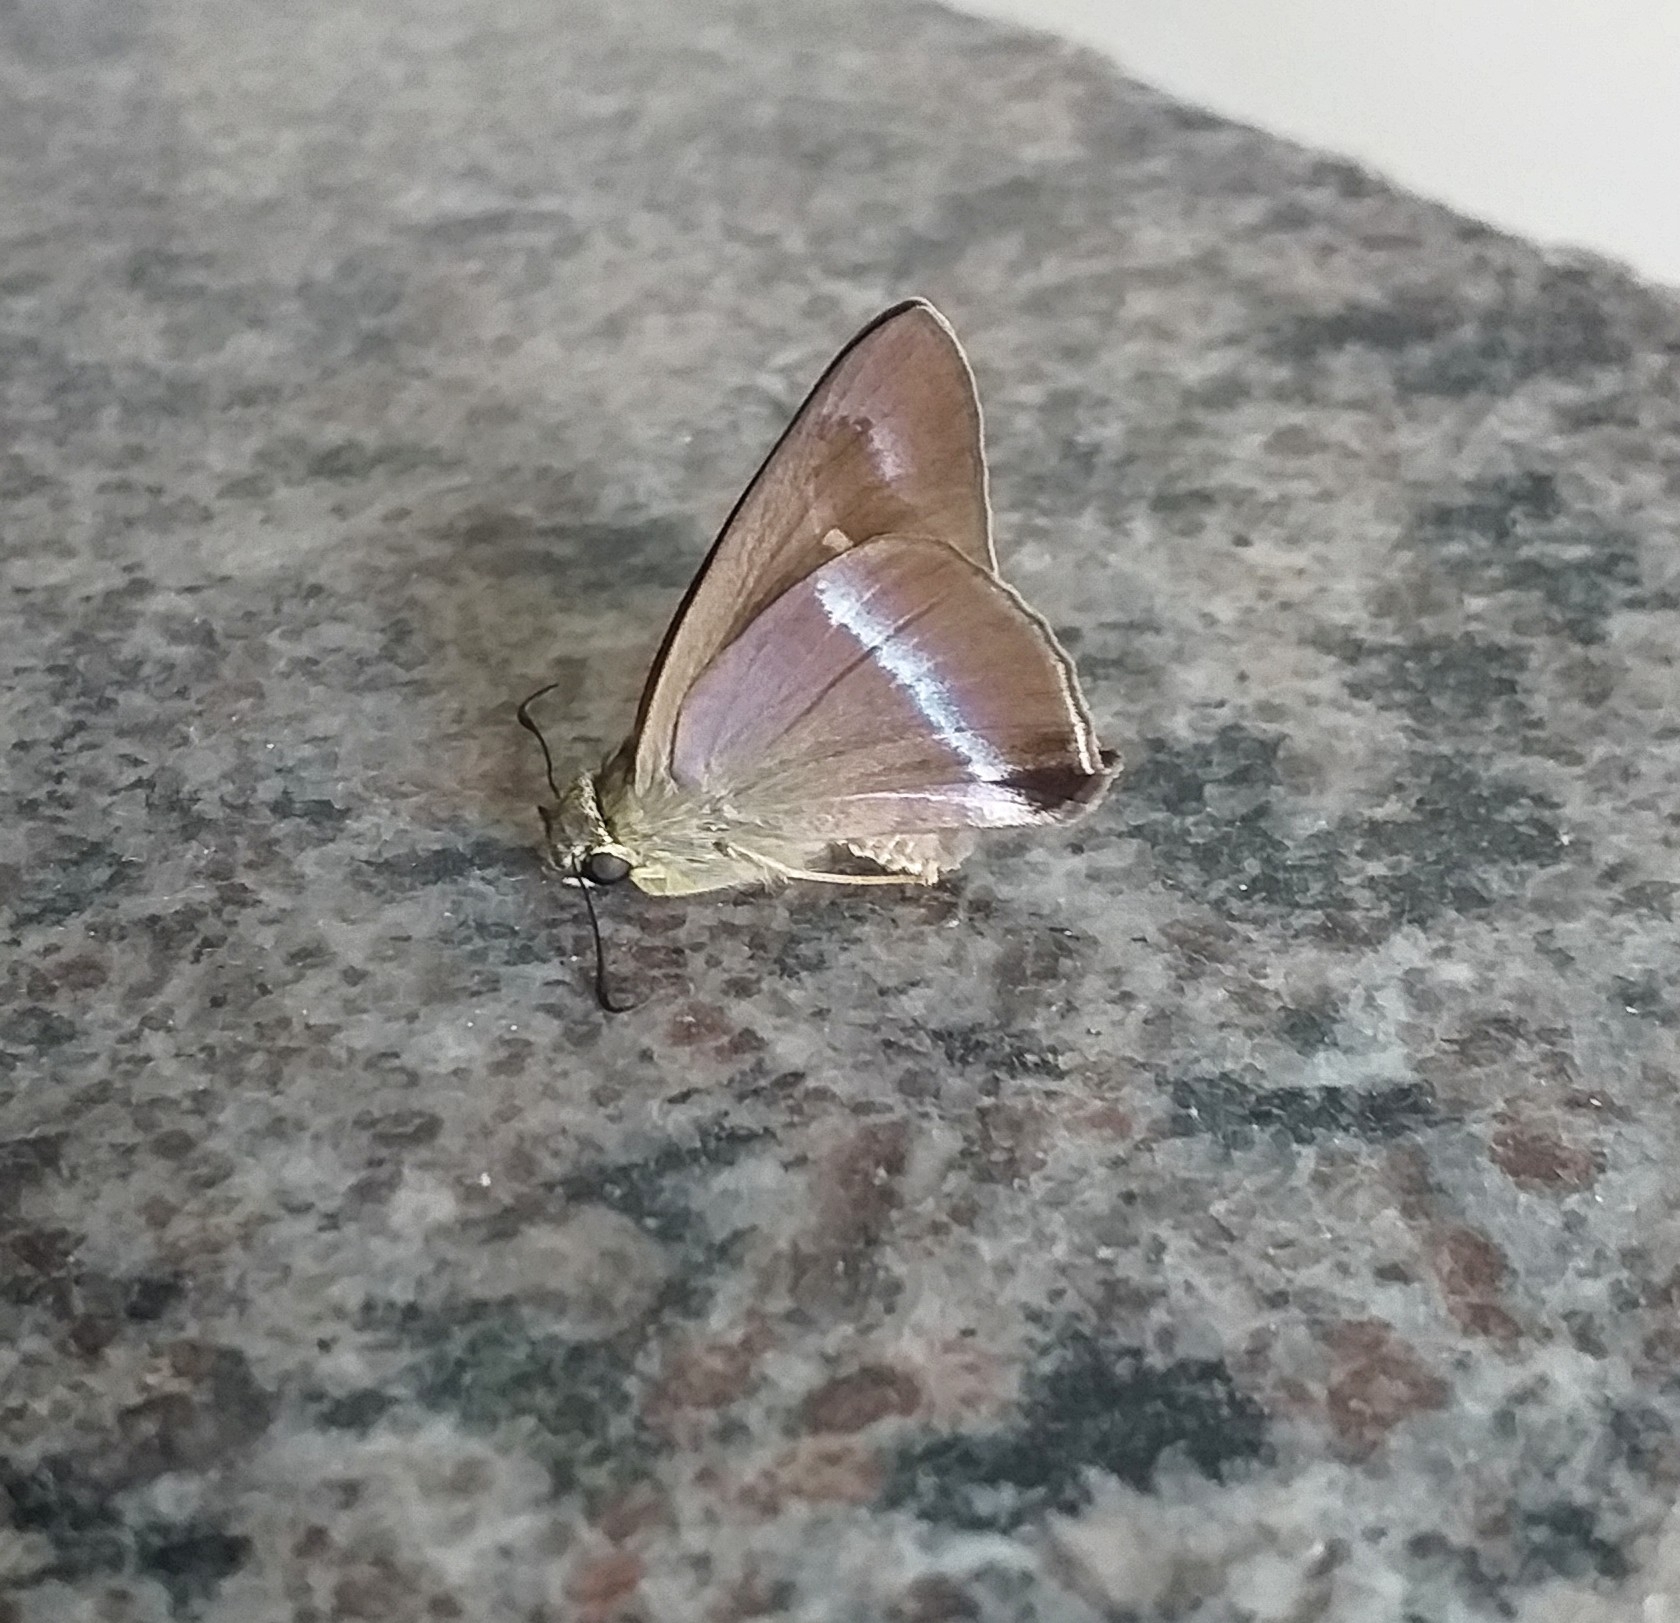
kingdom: Animalia
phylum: Arthropoda
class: Insecta
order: Lepidoptera
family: Hesperiidae
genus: Hasora
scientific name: Hasora chromus
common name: Common banded awl
